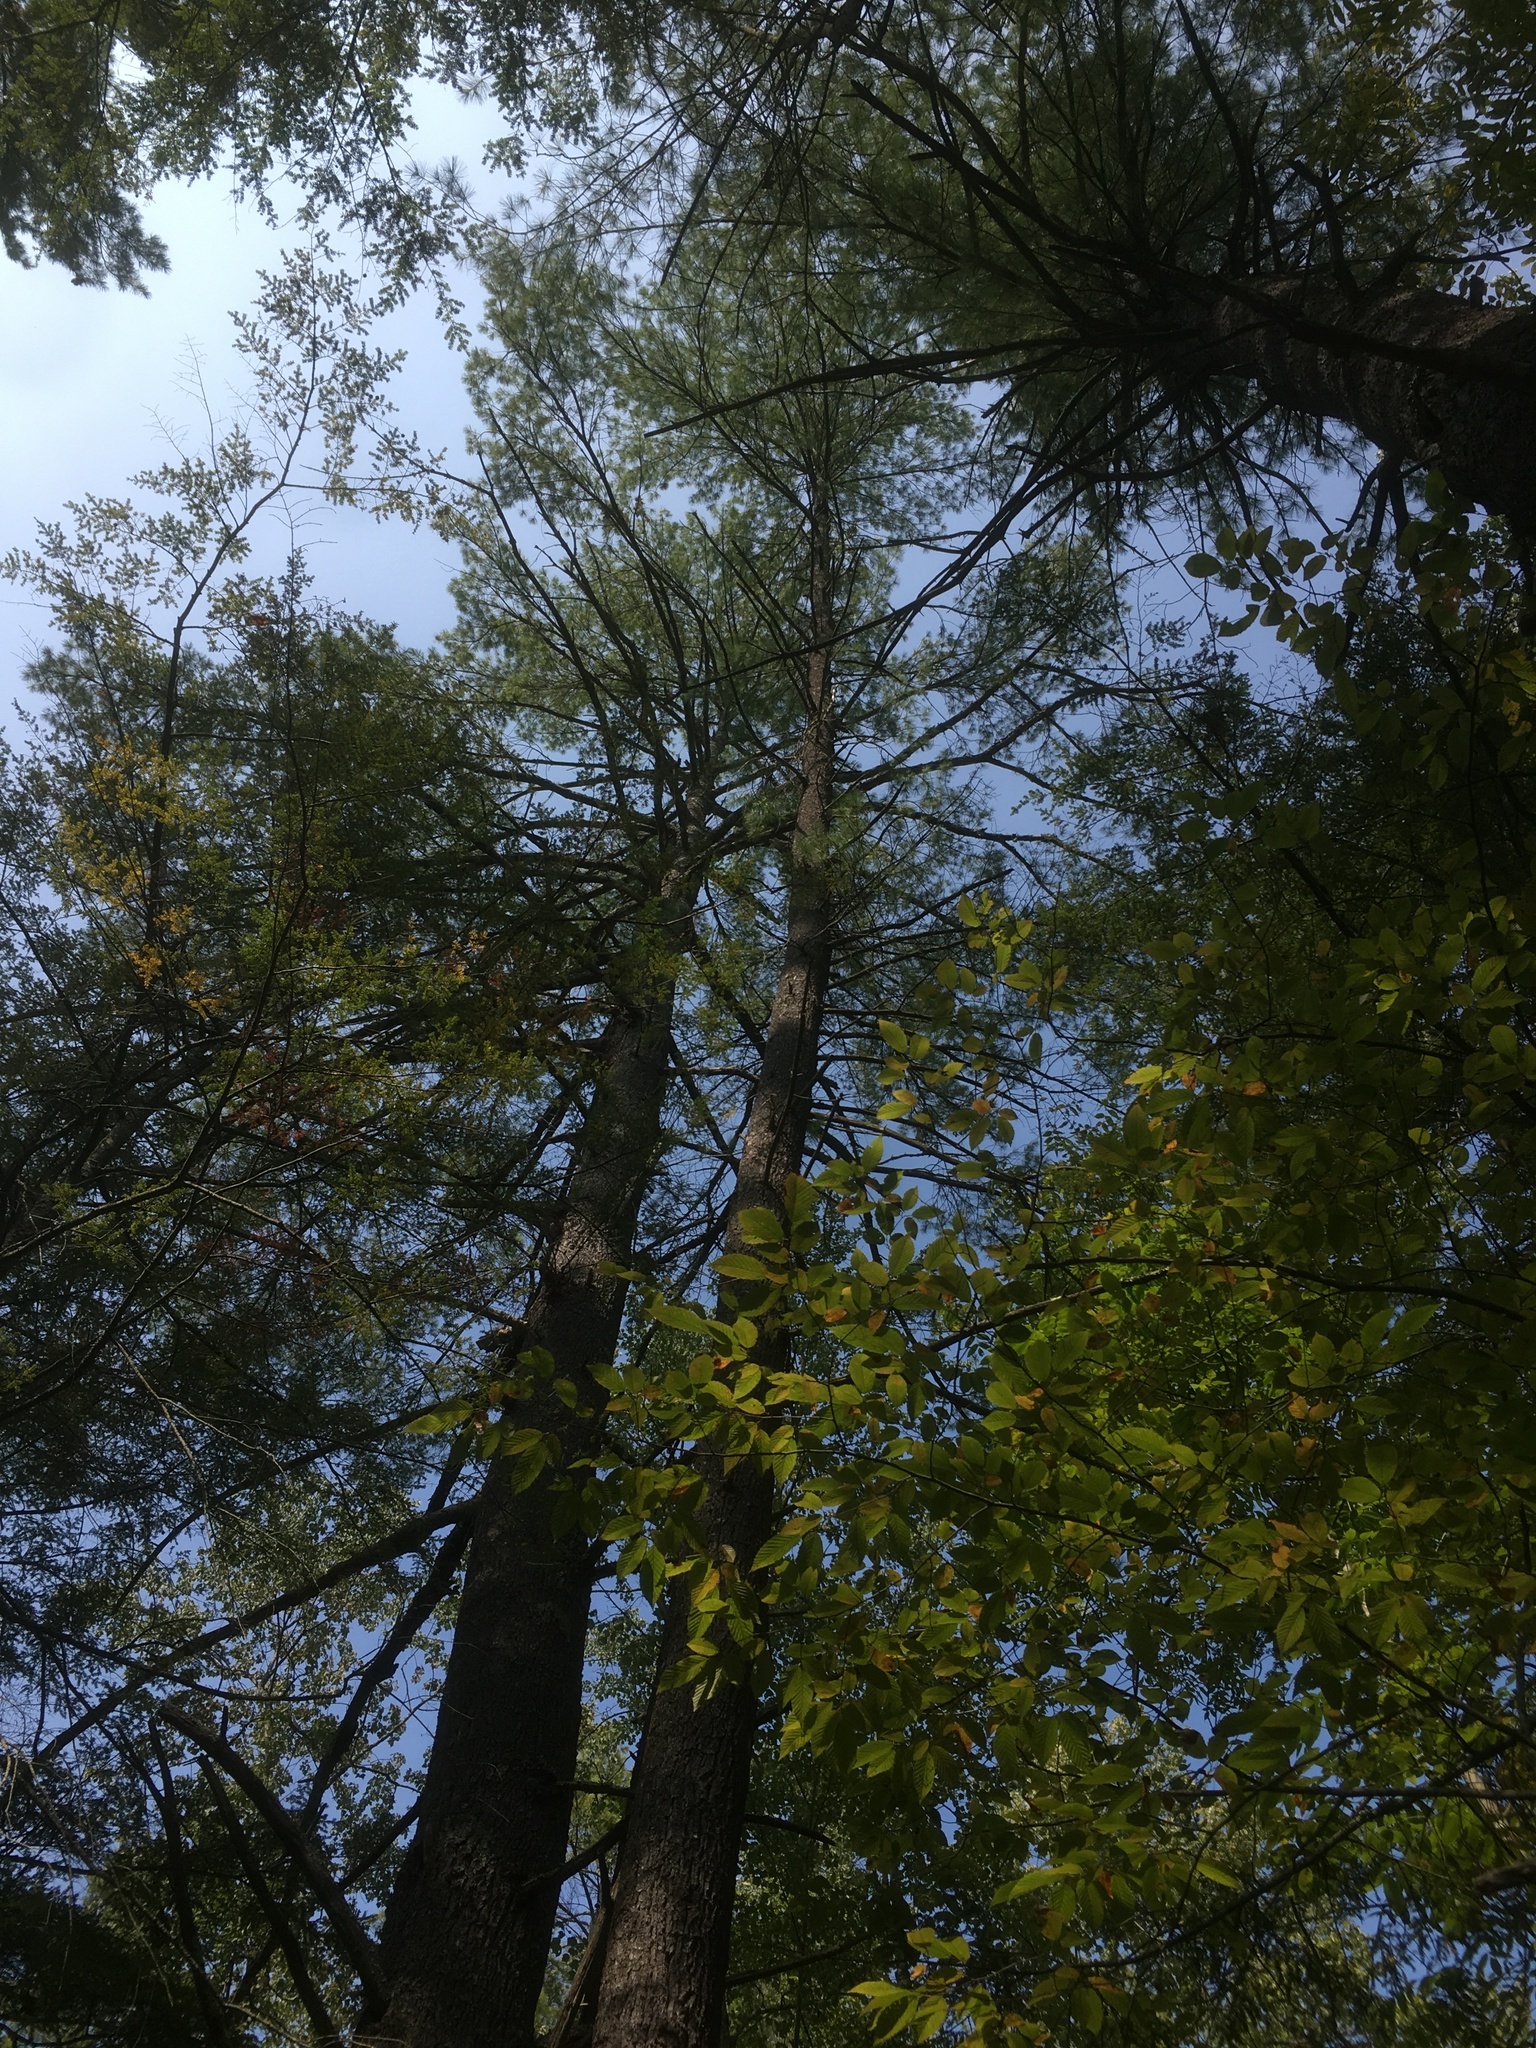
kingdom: Plantae
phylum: Tracheophyta
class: Pinopsida
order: Pinales
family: Pinaceae
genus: Pinus
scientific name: Pinus strobus
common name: Weymouth pine
